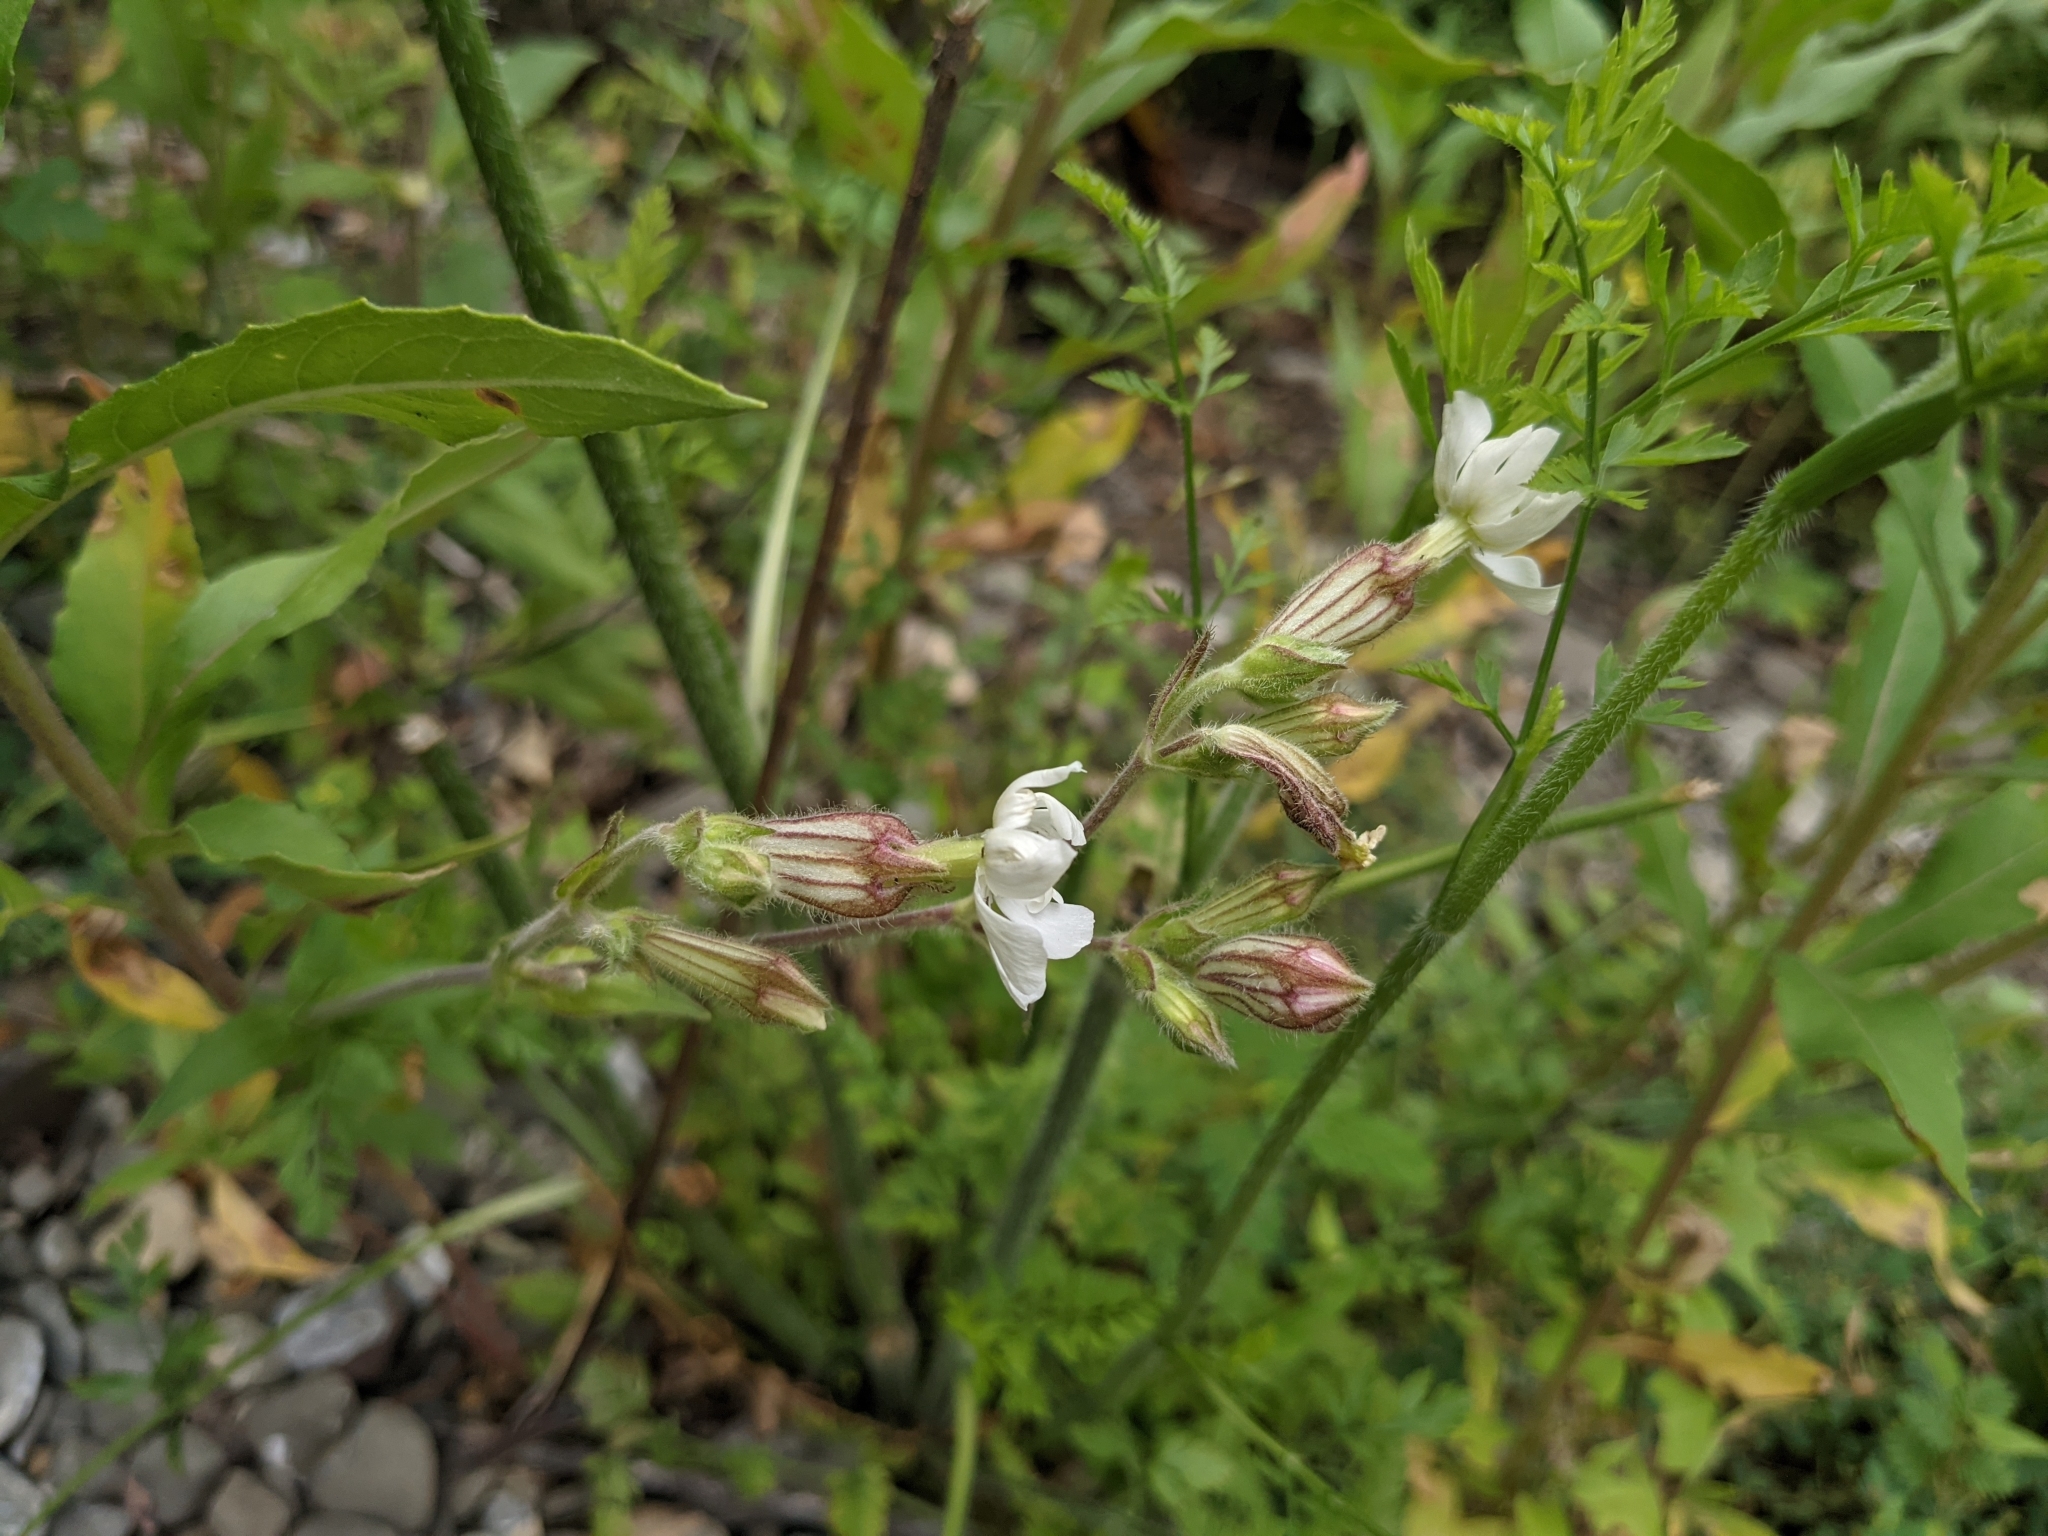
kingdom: Plantae
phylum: Tracheophyta
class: Magnoliopsida
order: Caryophyllales
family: Caryophyllaceae
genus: Silene
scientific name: Silene latifolia
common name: White campion
